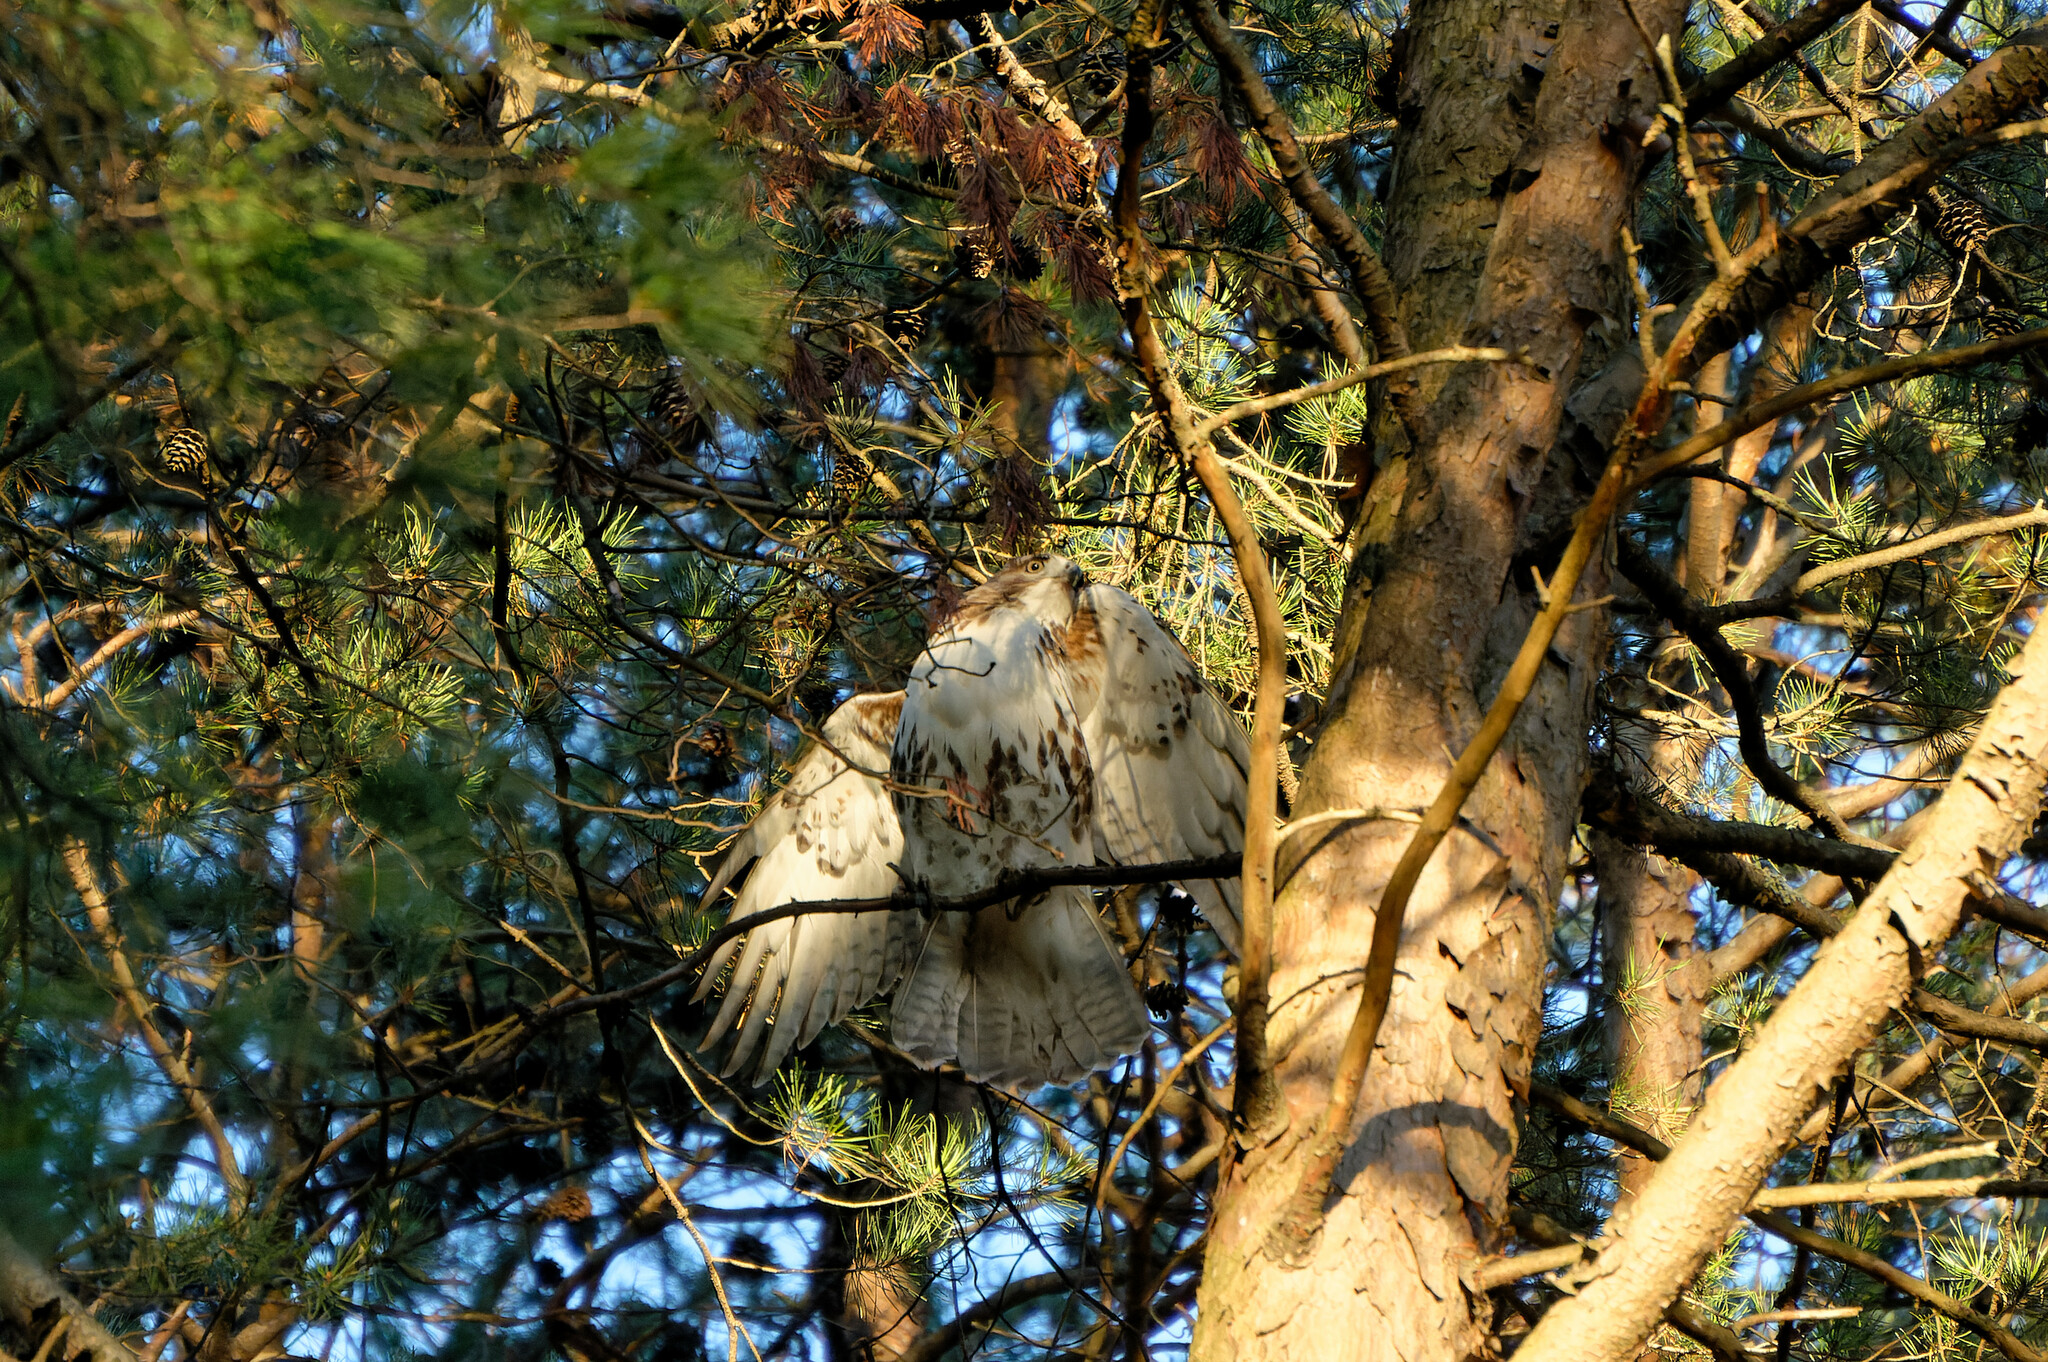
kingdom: Animalia
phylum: Chordata
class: Aves
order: Accipitriformes
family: Accipitridae
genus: Buteo
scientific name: Buteo jamaicensis
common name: Red-tailed hawk
